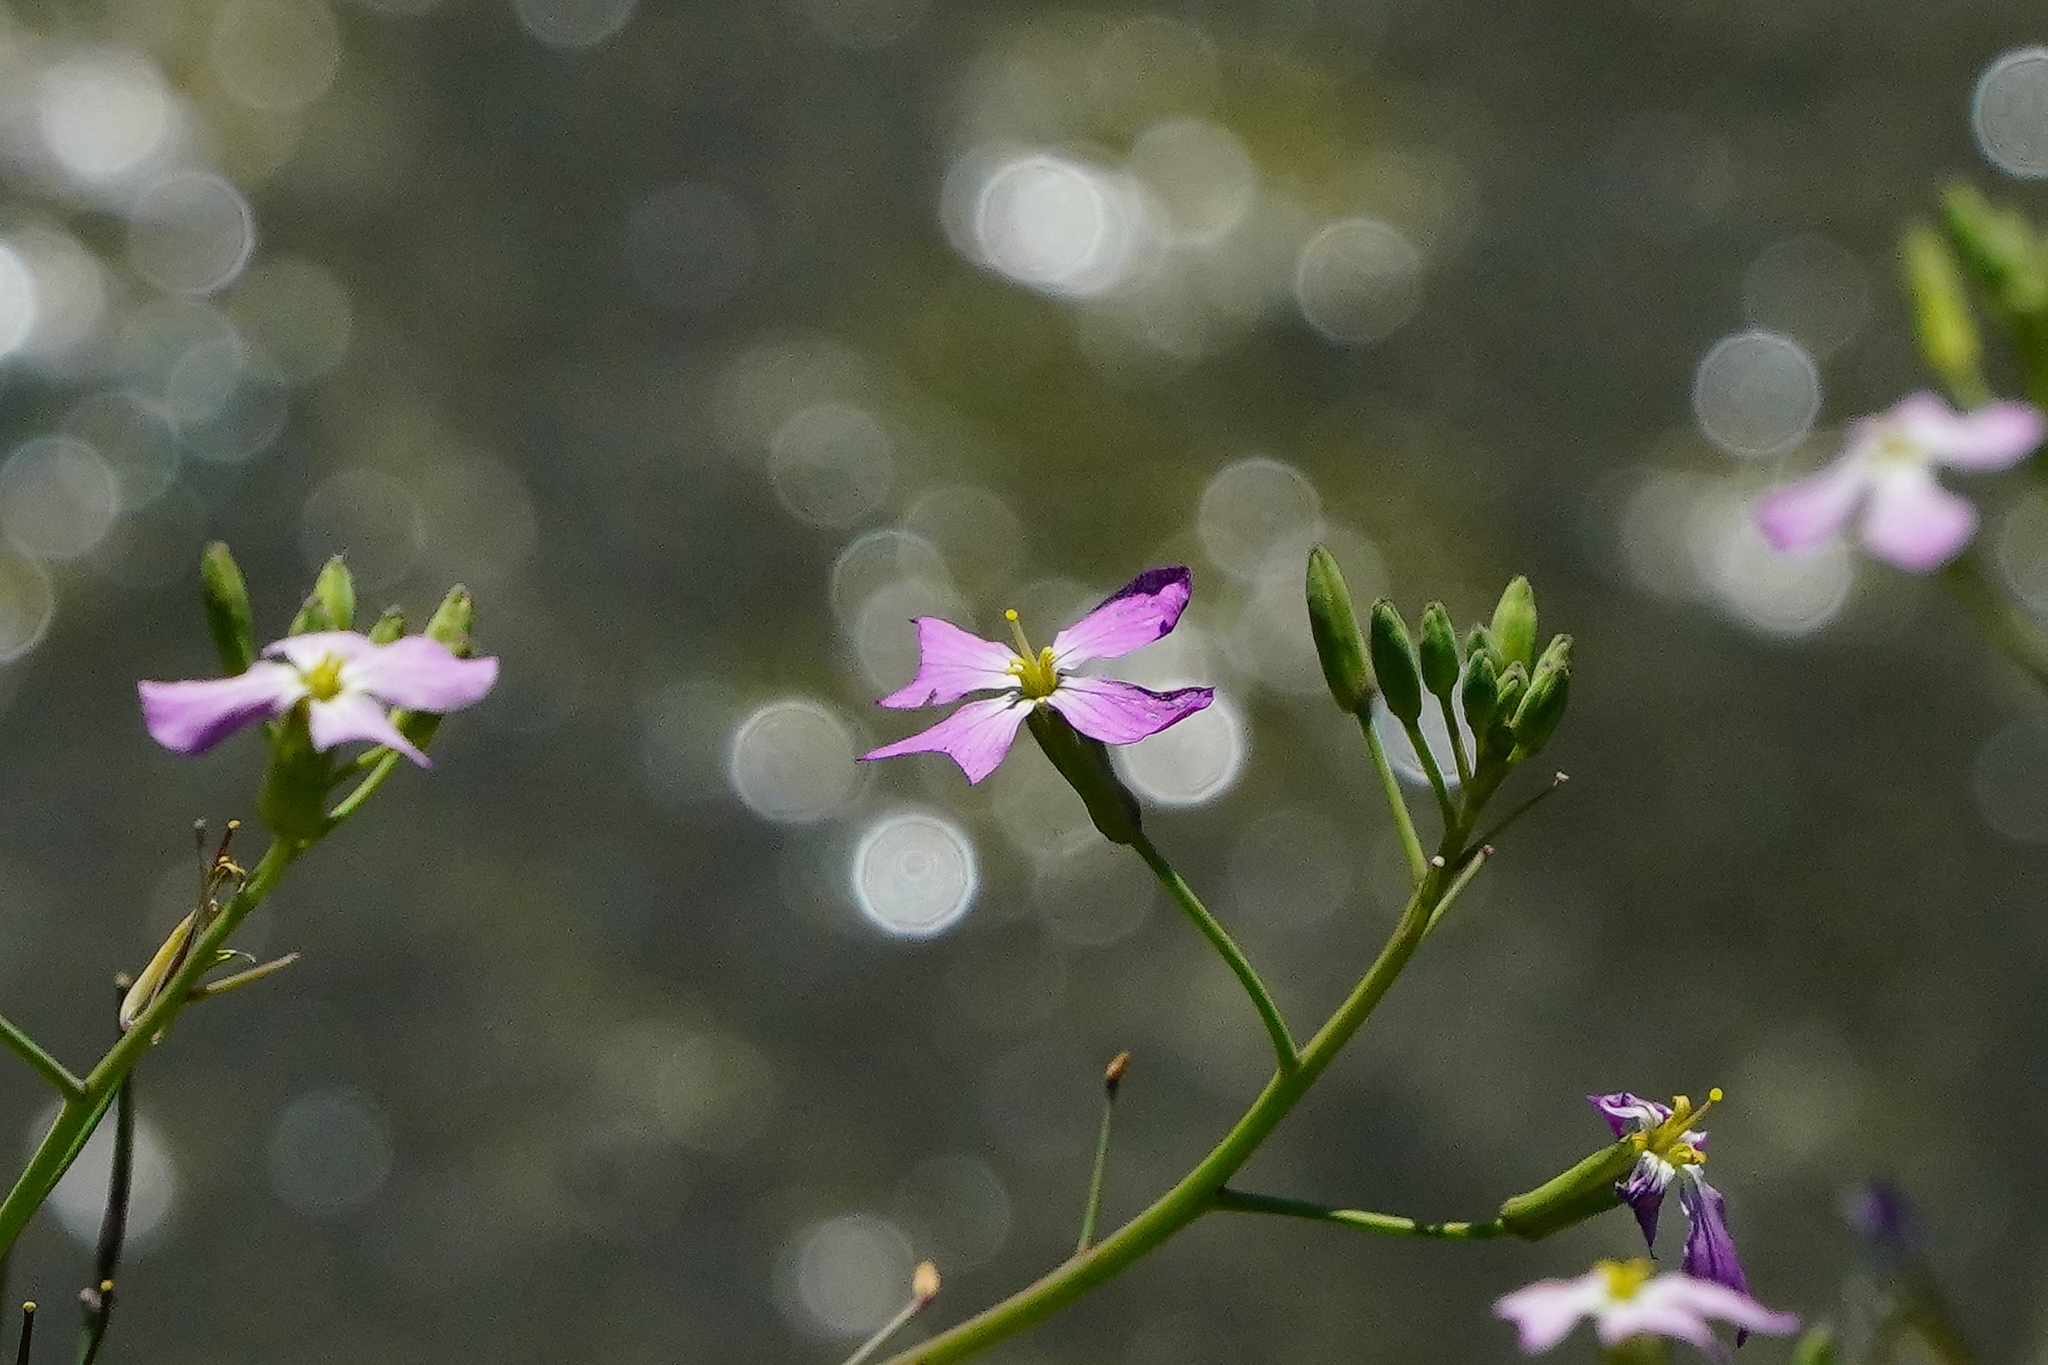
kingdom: Plantae
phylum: Tracheophyta
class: Magnoliopsida
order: Brassicales
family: Brassicaceae
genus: Raphanus
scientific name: Raphanus sativus
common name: Cultivated radish
